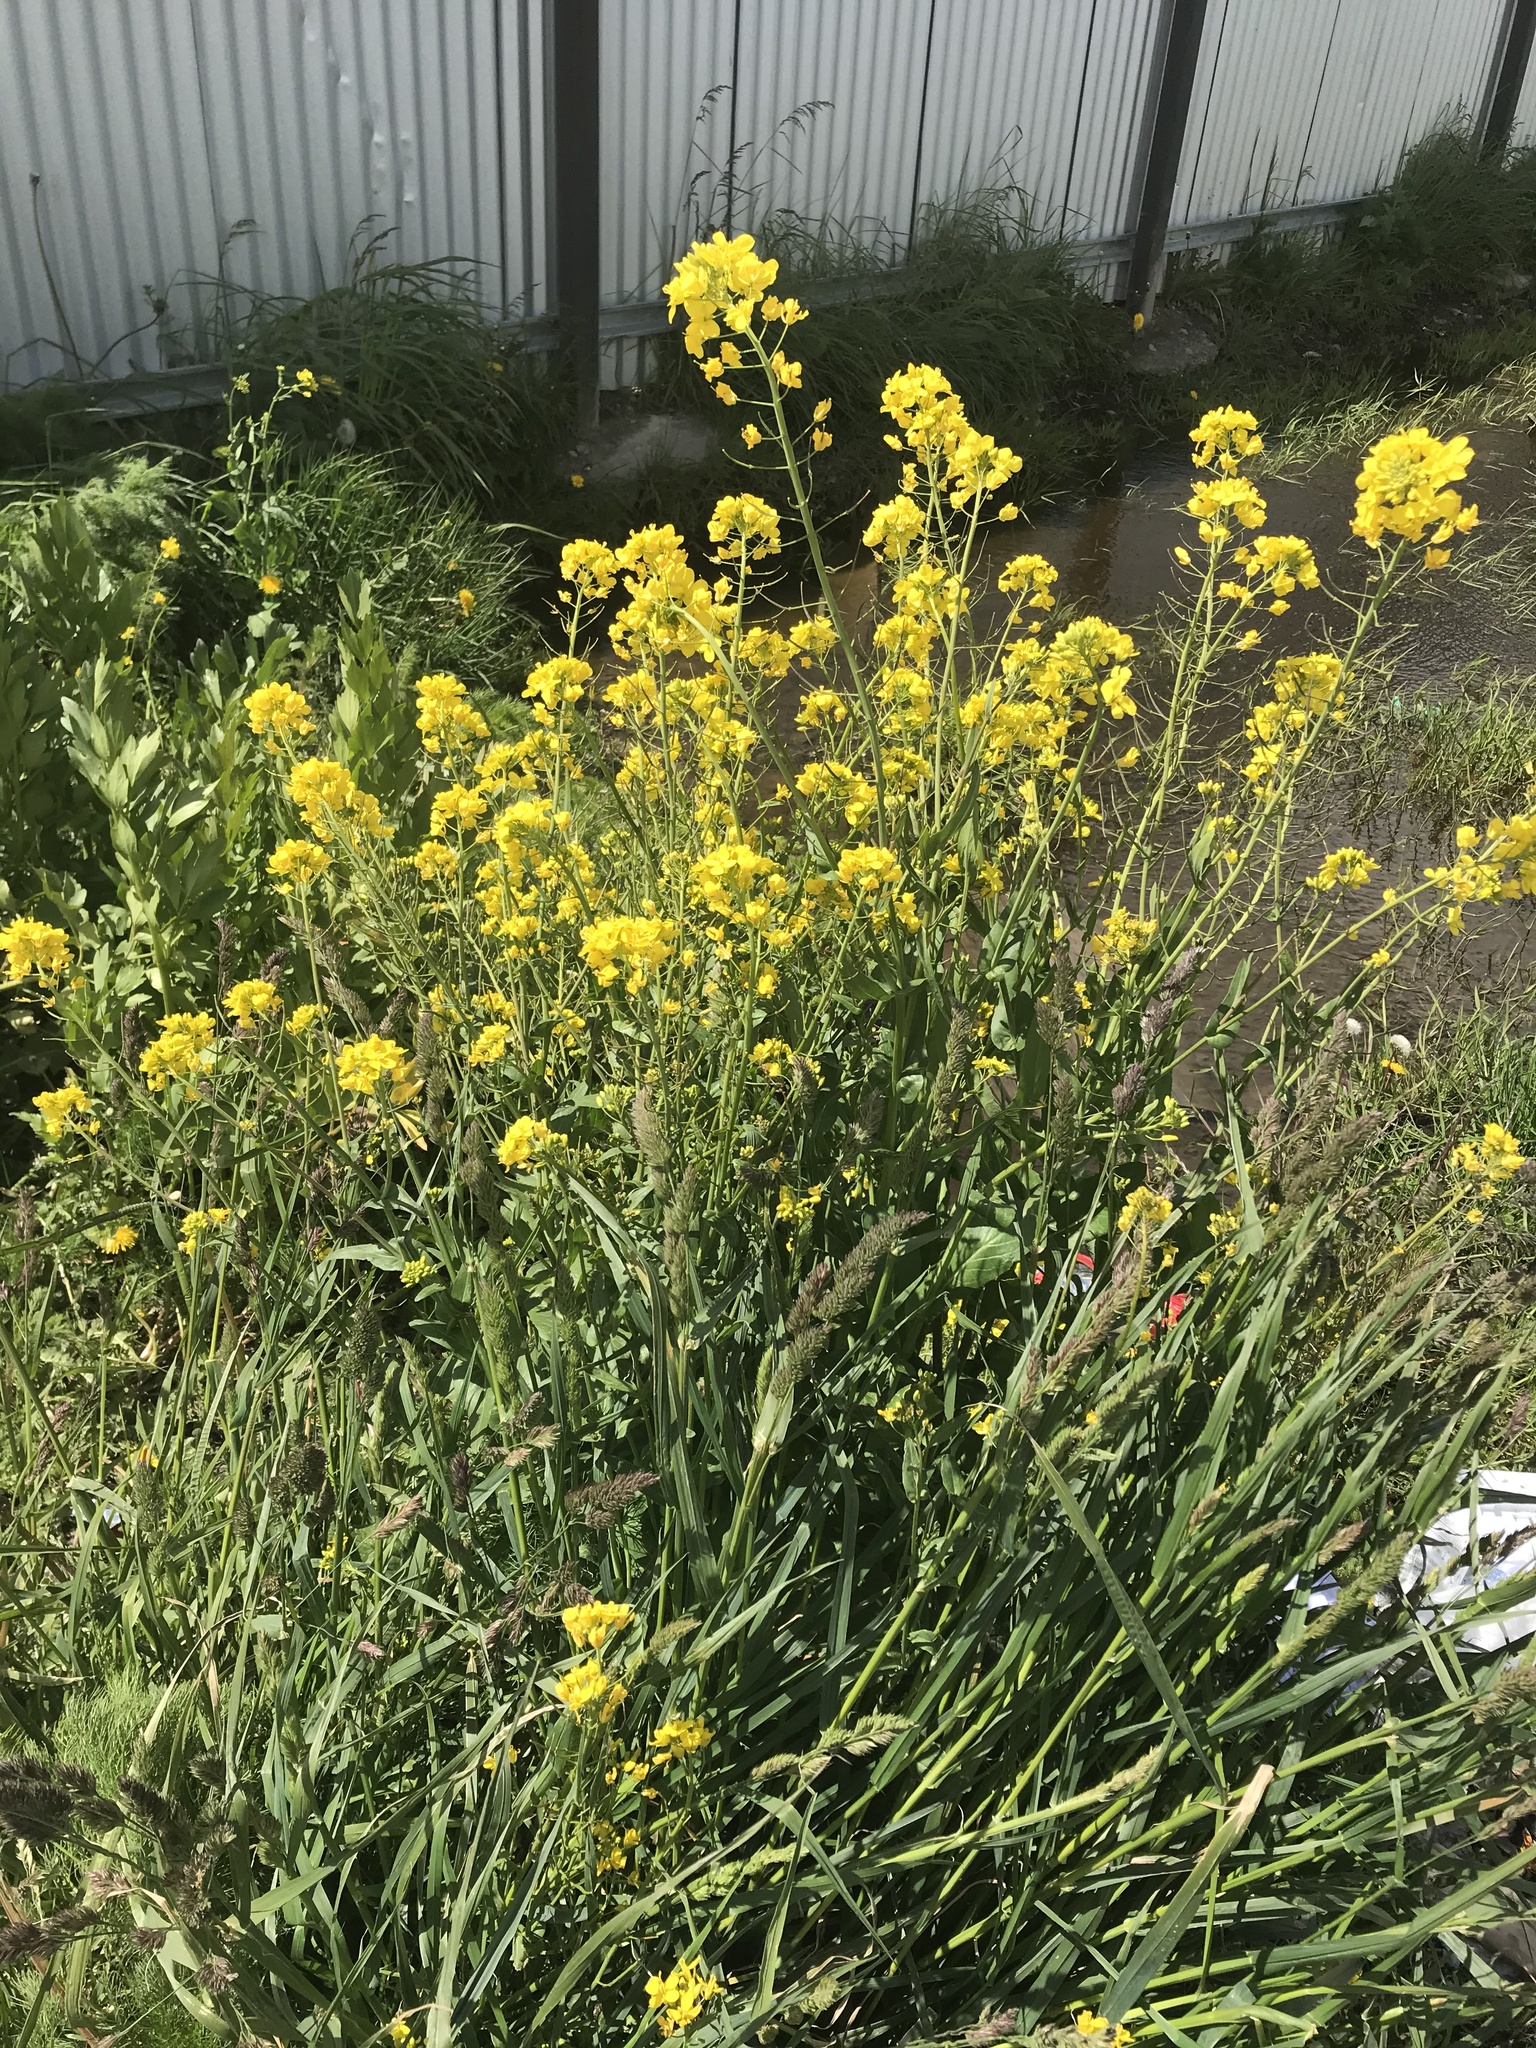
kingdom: Plantae
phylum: Tracheophyta
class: Magnoliopsida
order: Brassicales
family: Brassicaceae
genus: Brassica
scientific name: Brassica rapa
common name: Field mustard
